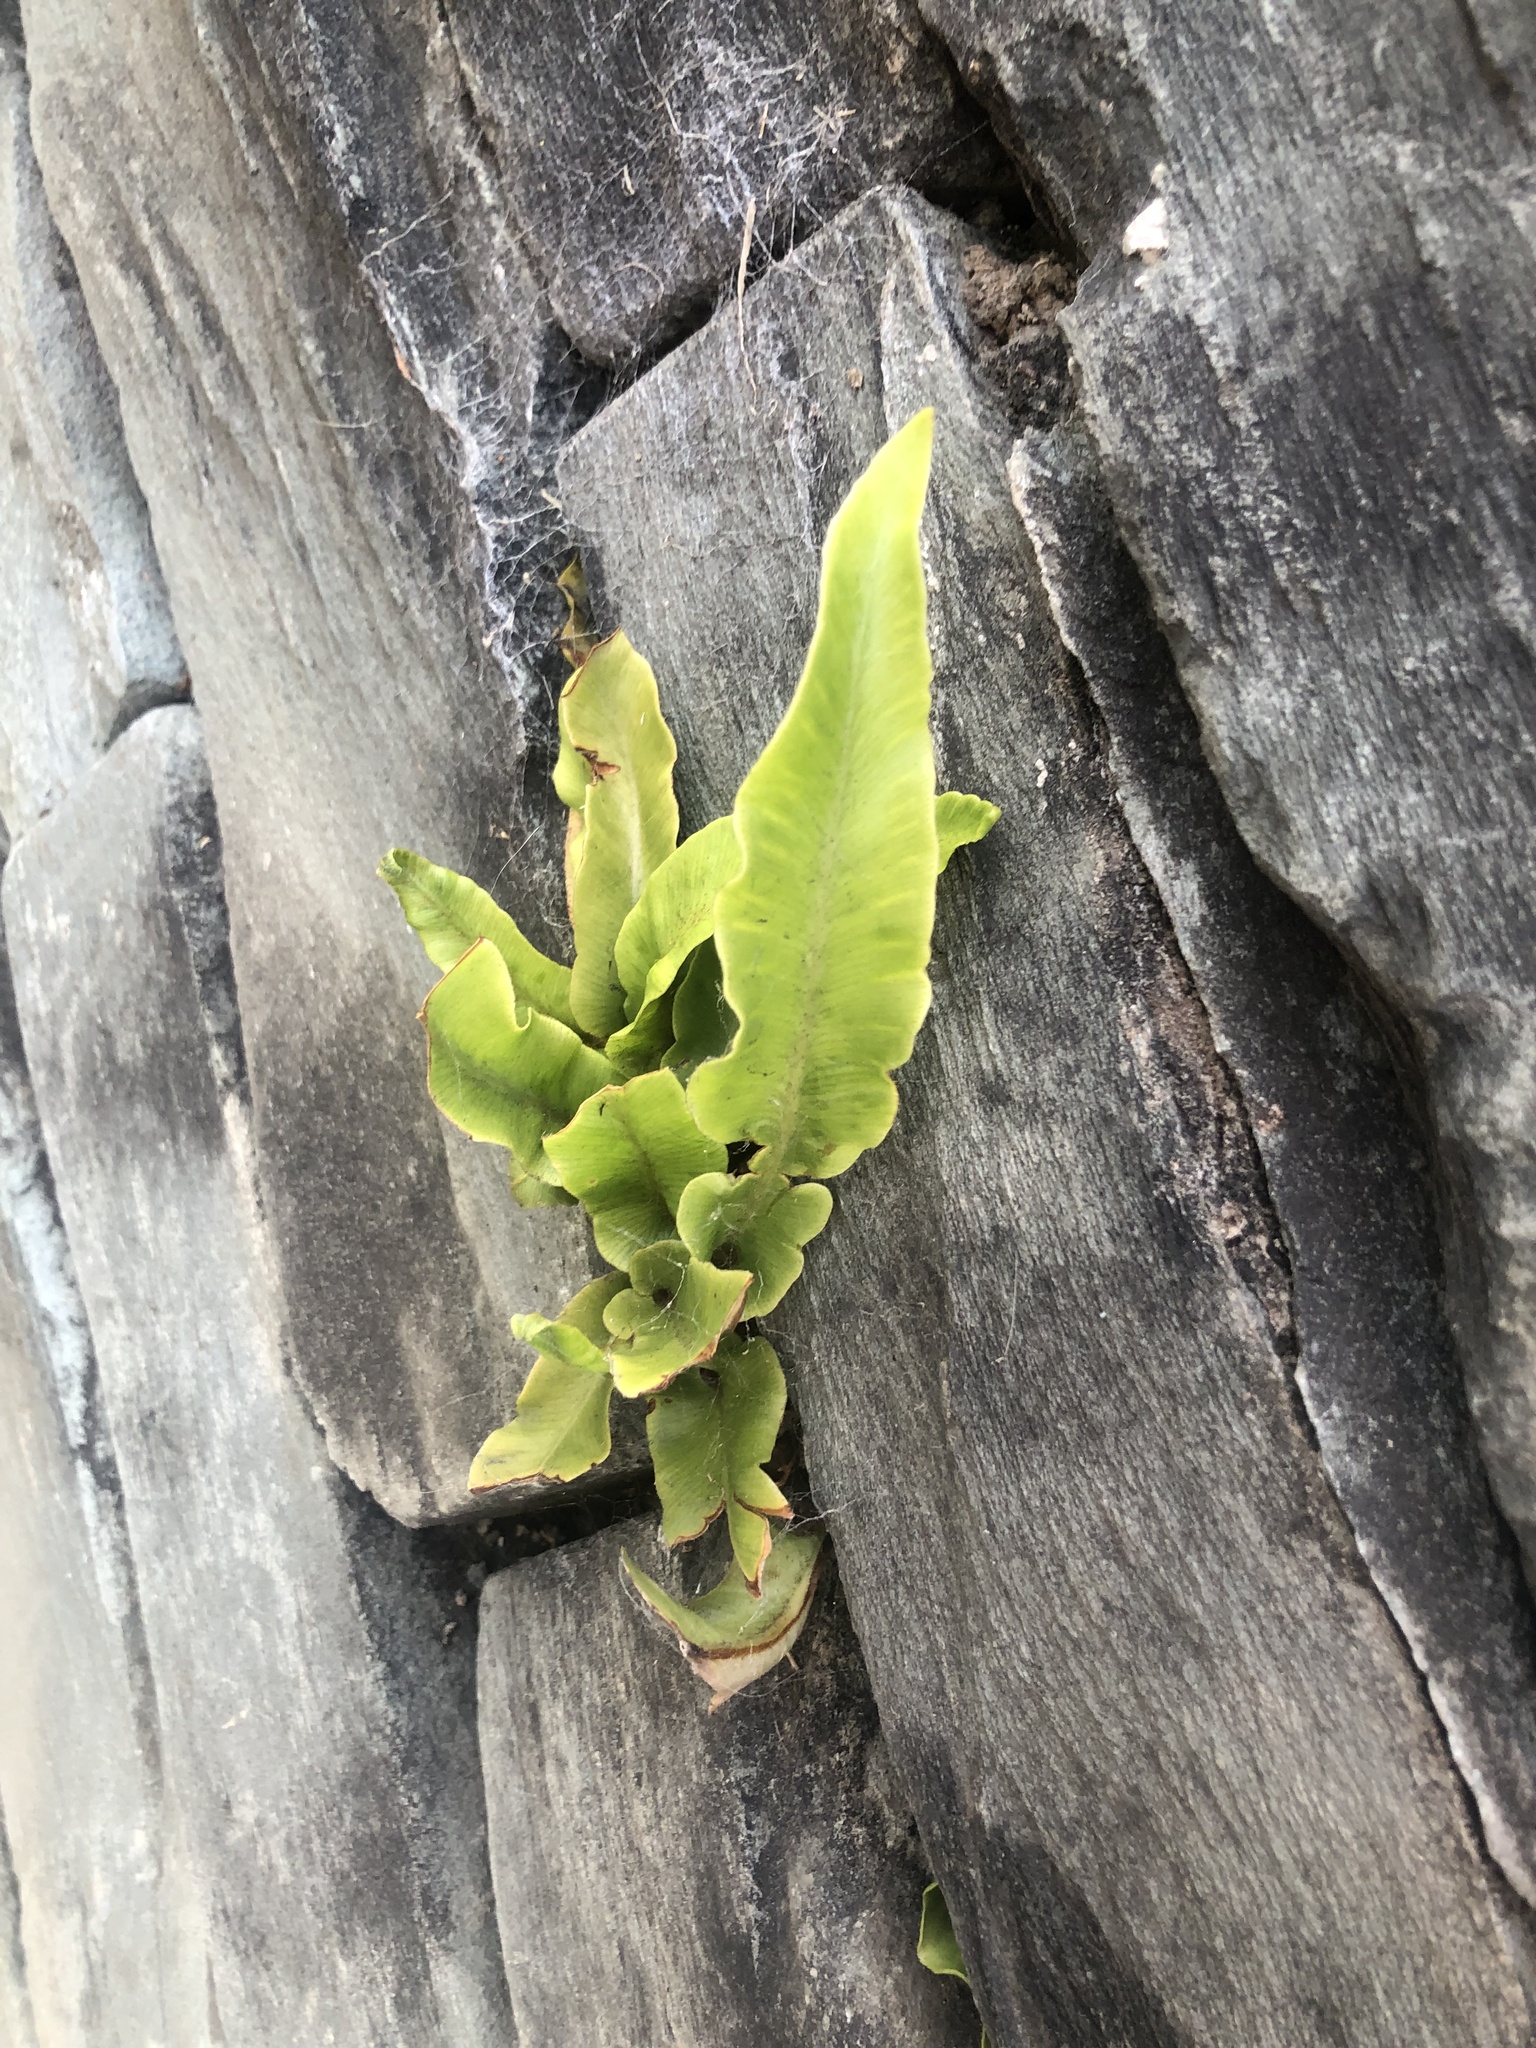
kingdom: Plantae
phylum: Tracheophyta
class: Polypodiopsida
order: Polypodiales
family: Aspleniaceae
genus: Asplenium
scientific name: Asplenium scolopendrium
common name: Hart's-tongue fern
